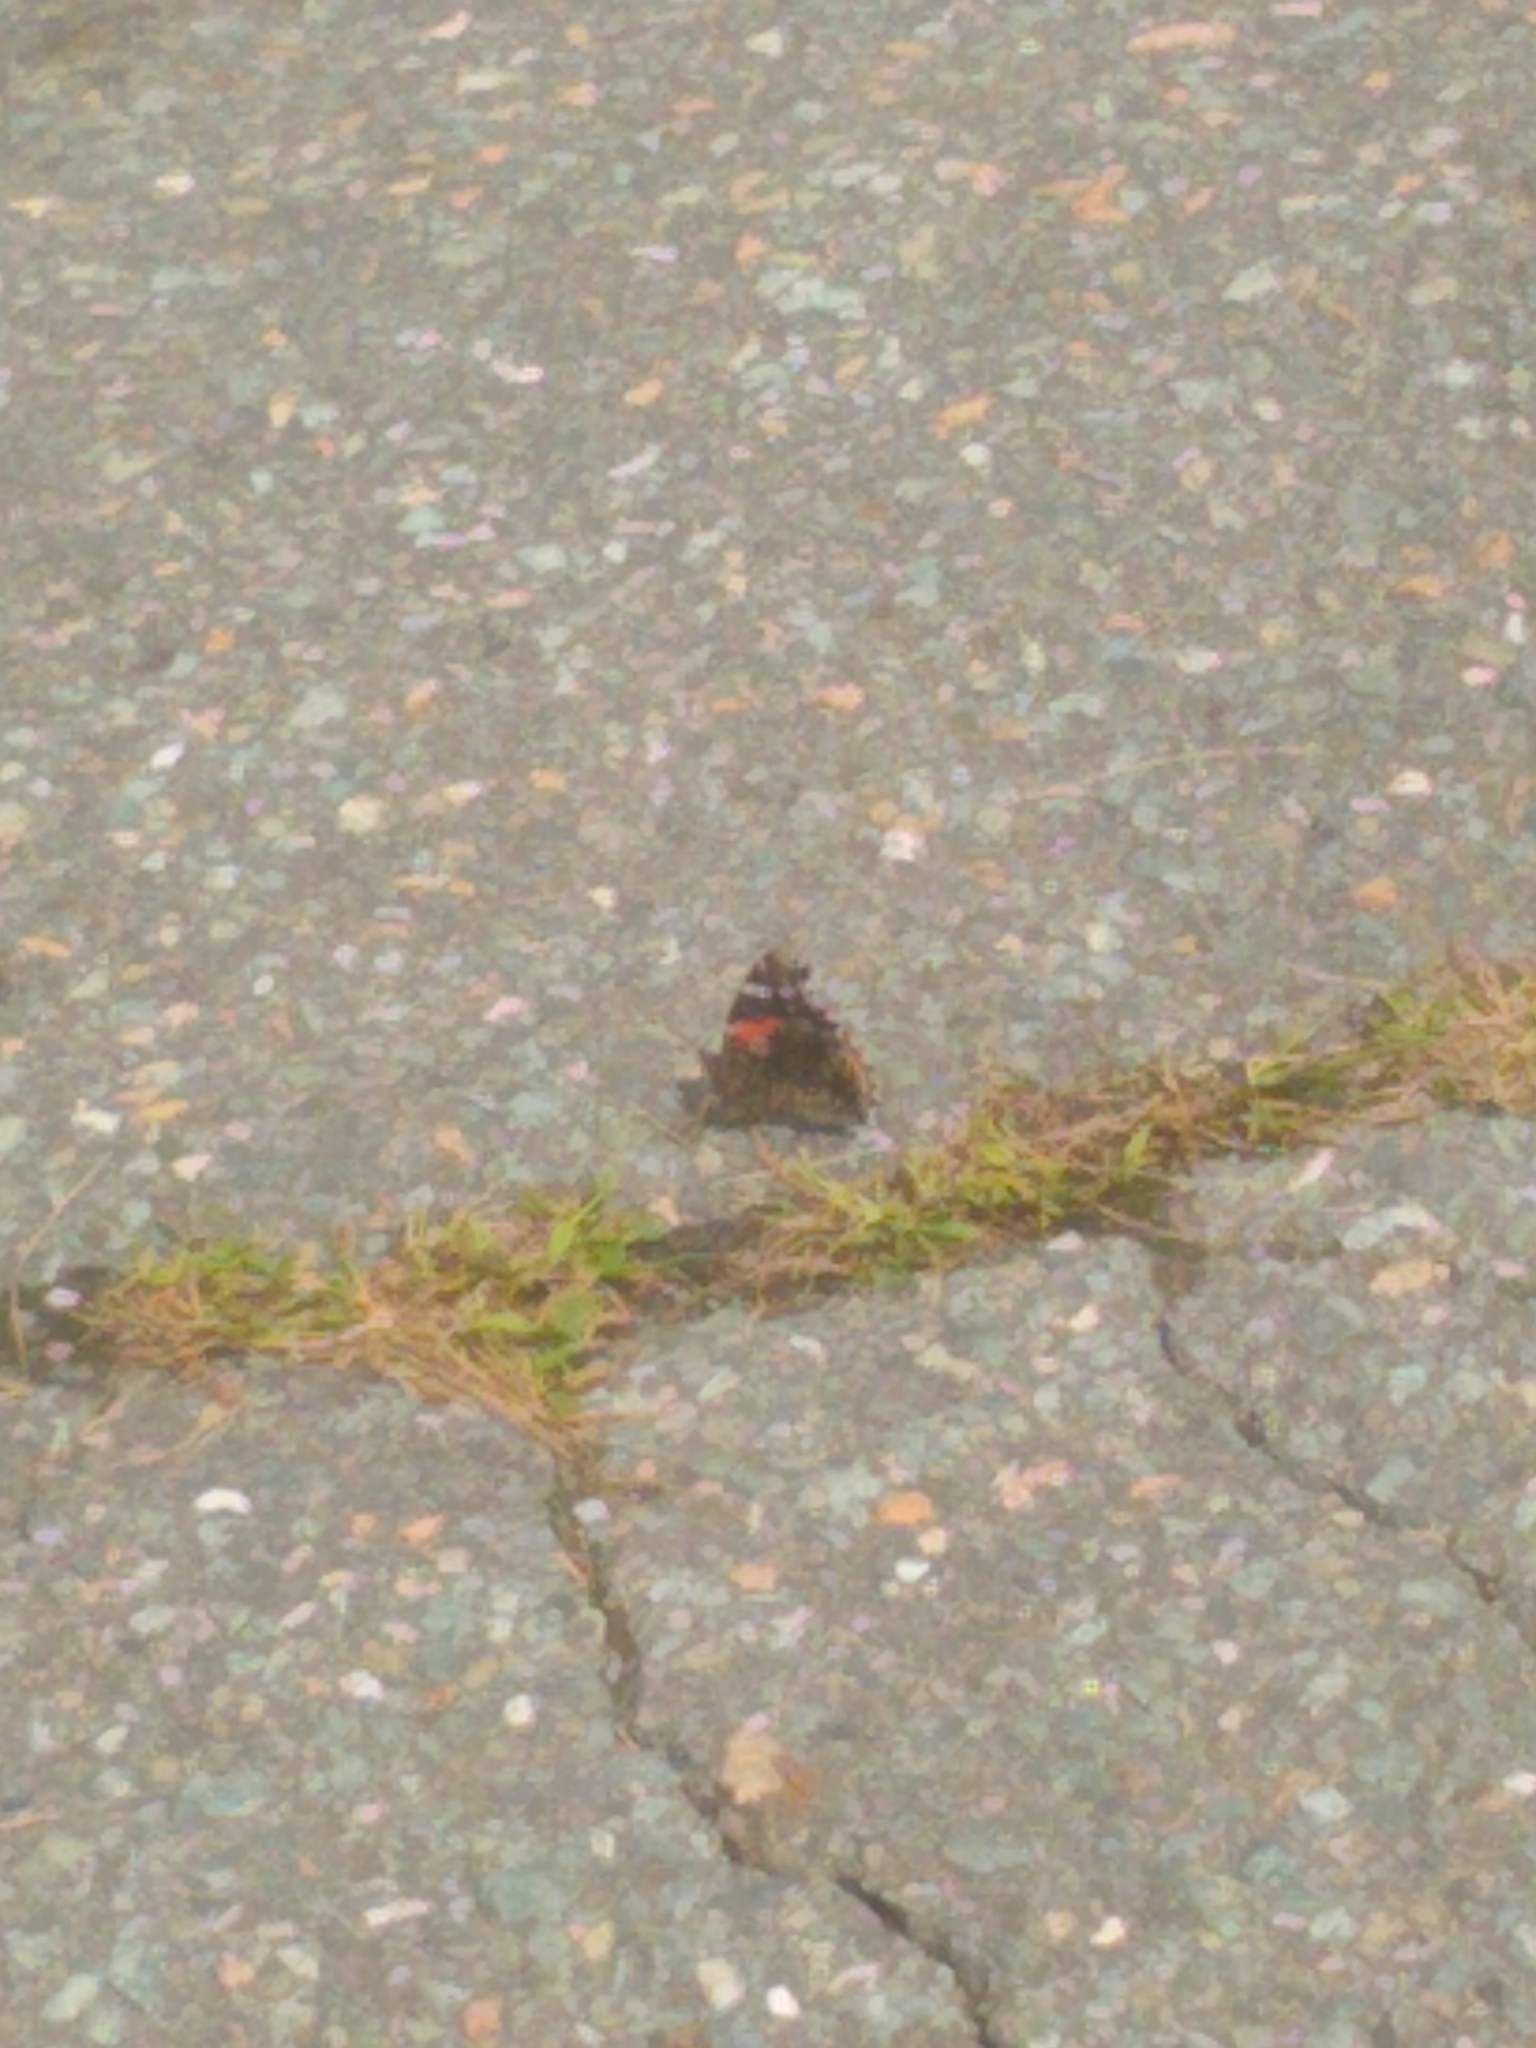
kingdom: Animalia
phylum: Arthropoda
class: Insecta
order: Lepidoptera
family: Nymphalidae
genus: Vanessa
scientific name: Vanessa atalanta
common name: Red admiral
